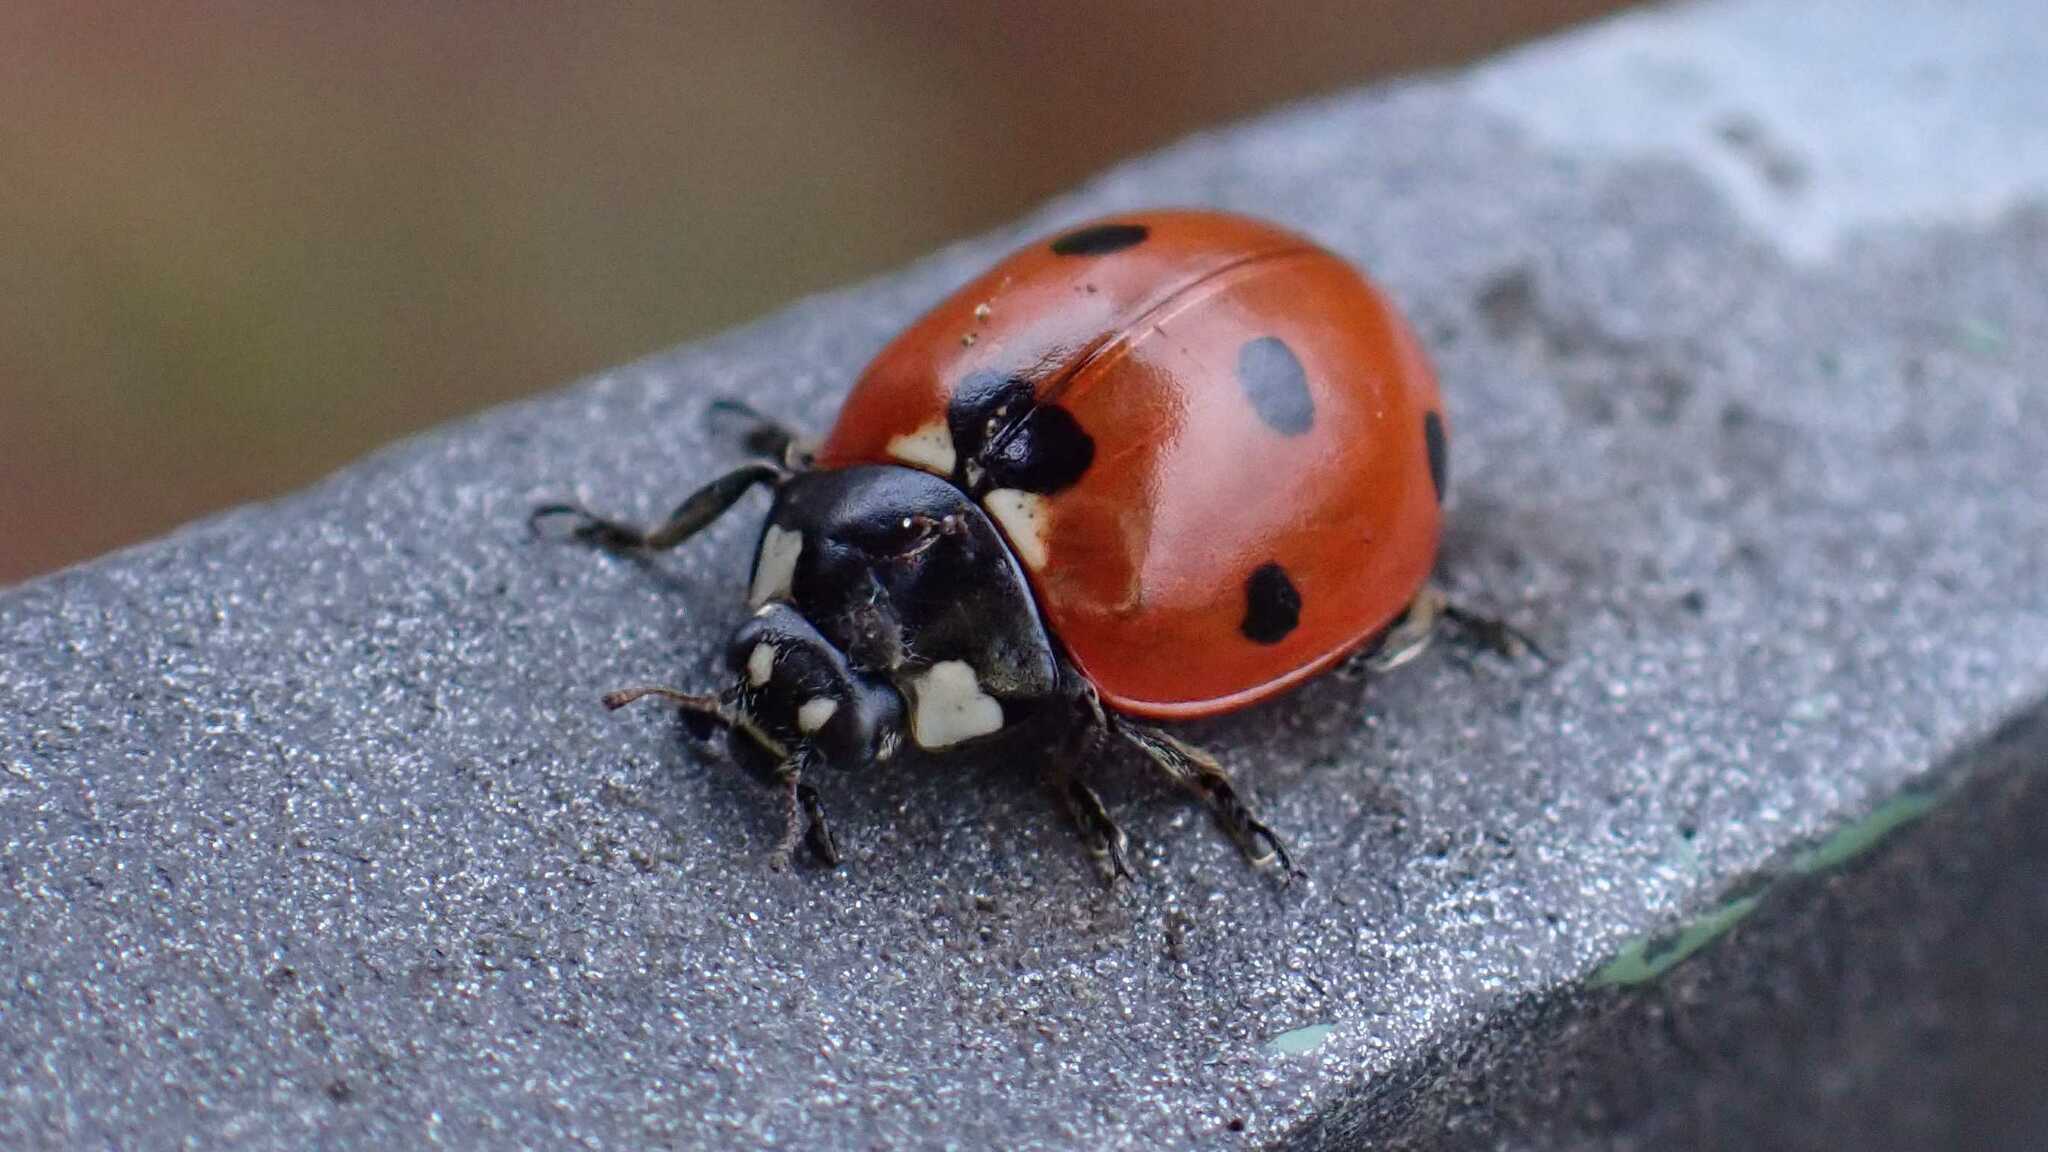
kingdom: Animalia
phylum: Arthropoda
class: Insecta
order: Coleoptera
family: Coccinellidae
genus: Coccinella
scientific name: Coccinella septempunctata
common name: Sevenspotted lady beetle
